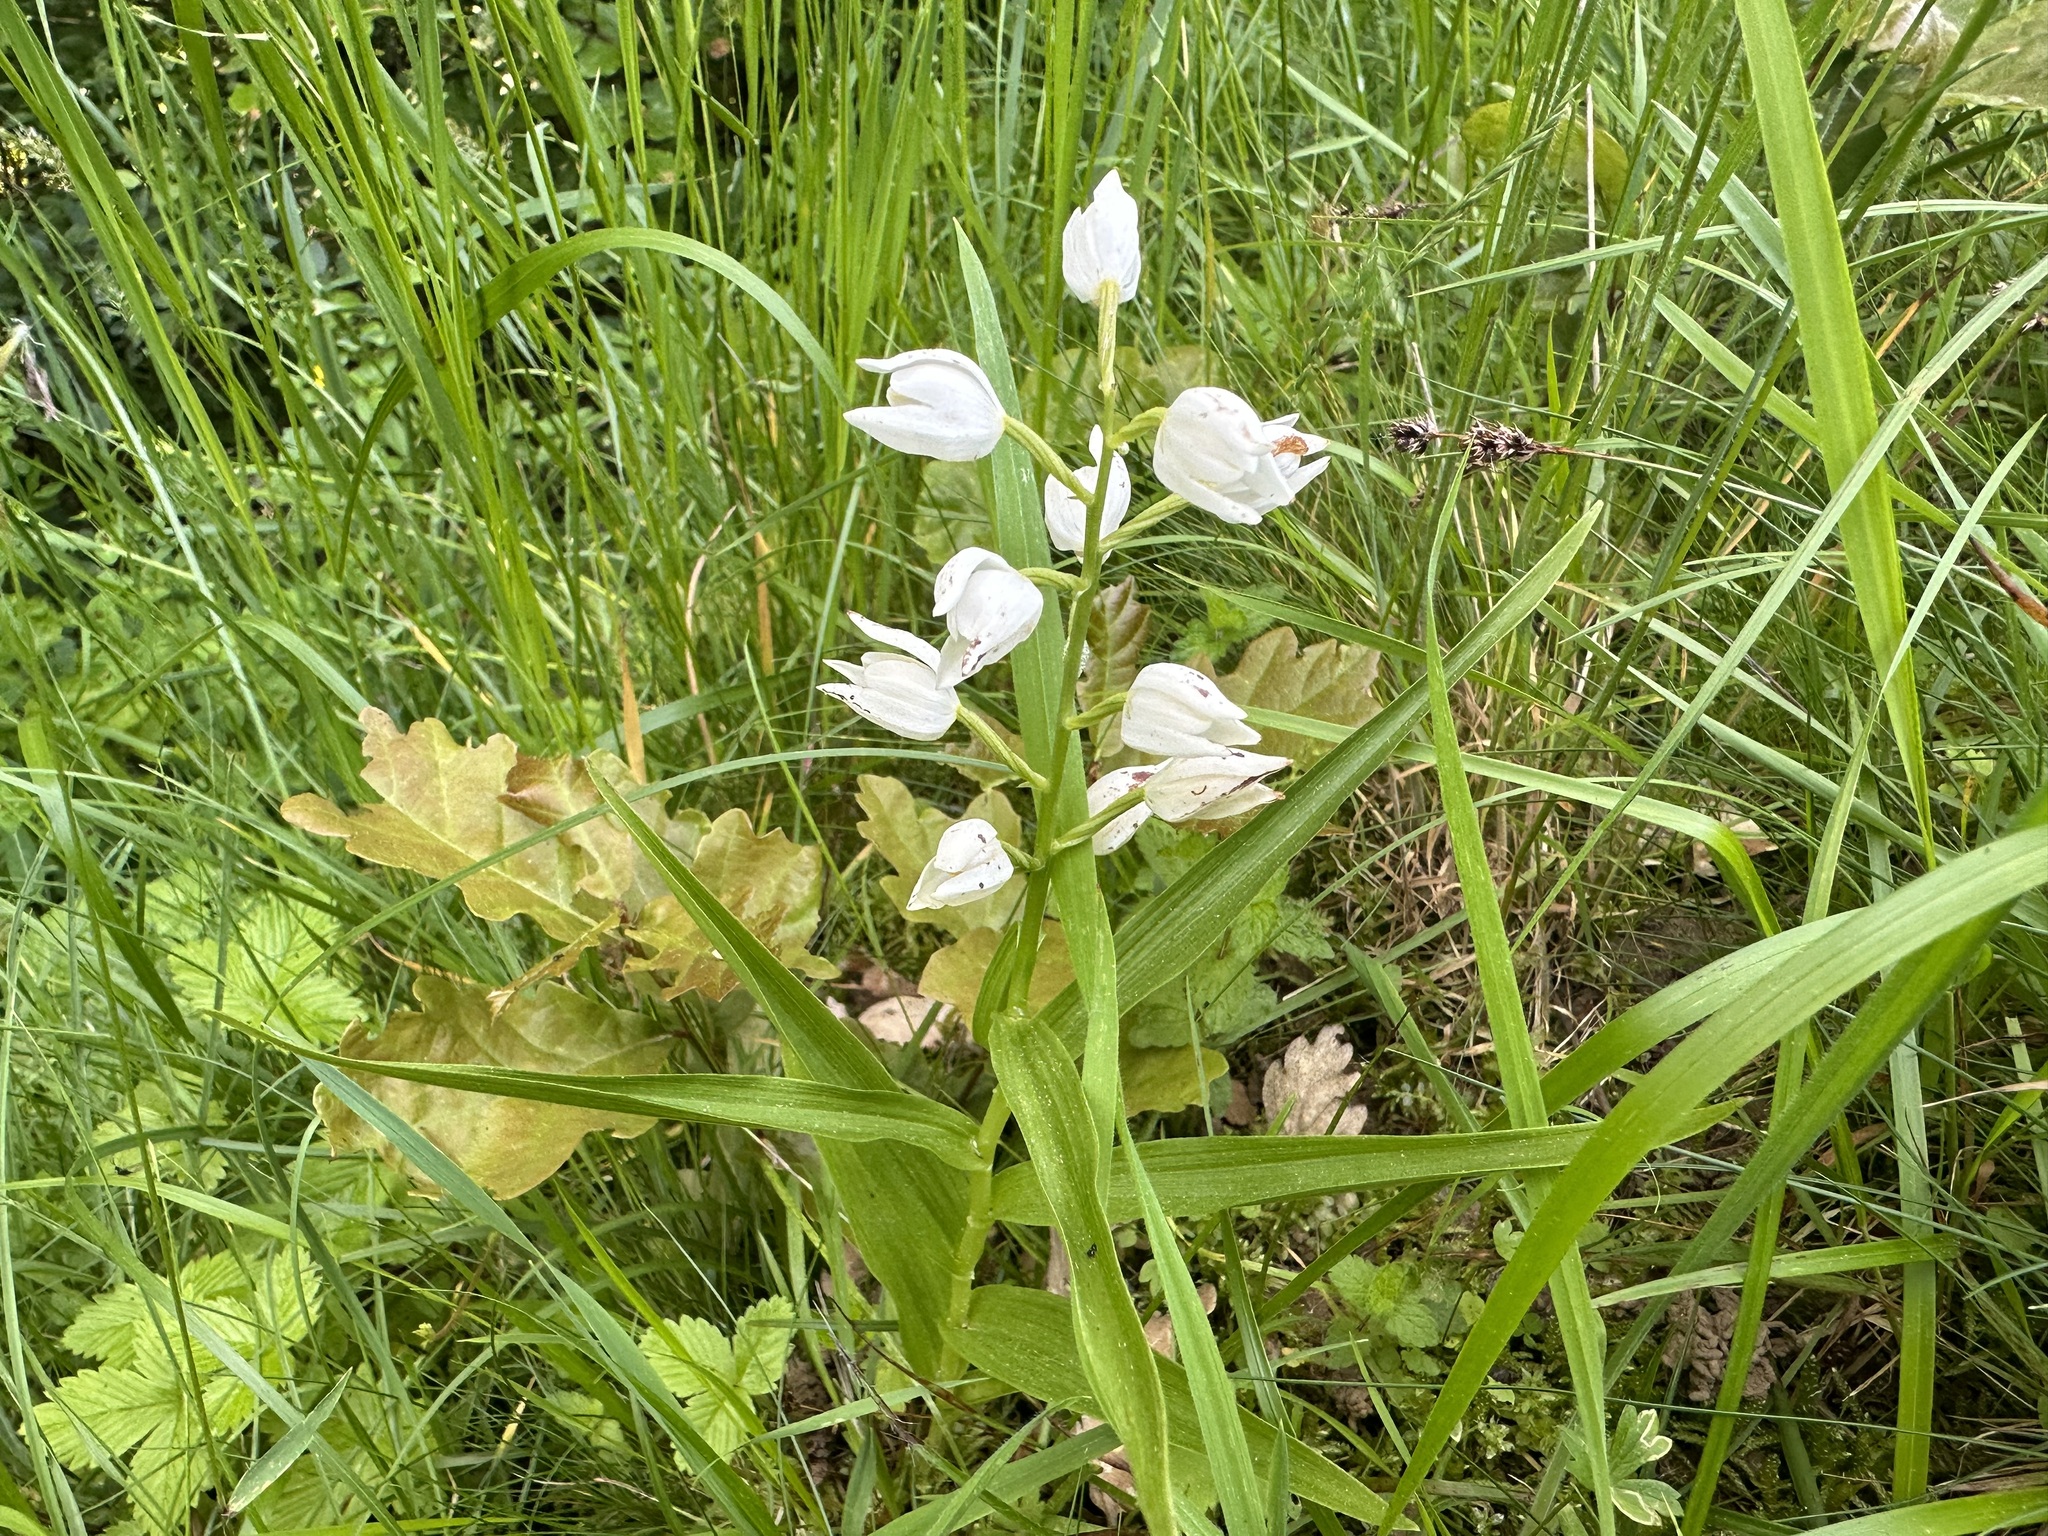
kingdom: Plantae
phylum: Tracheophyta
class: Liliopsida
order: Asparagales
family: Orchidaceae
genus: Cephalanthera
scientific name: Cephalanthera longifolia
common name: Narrow-leaved helleborine
